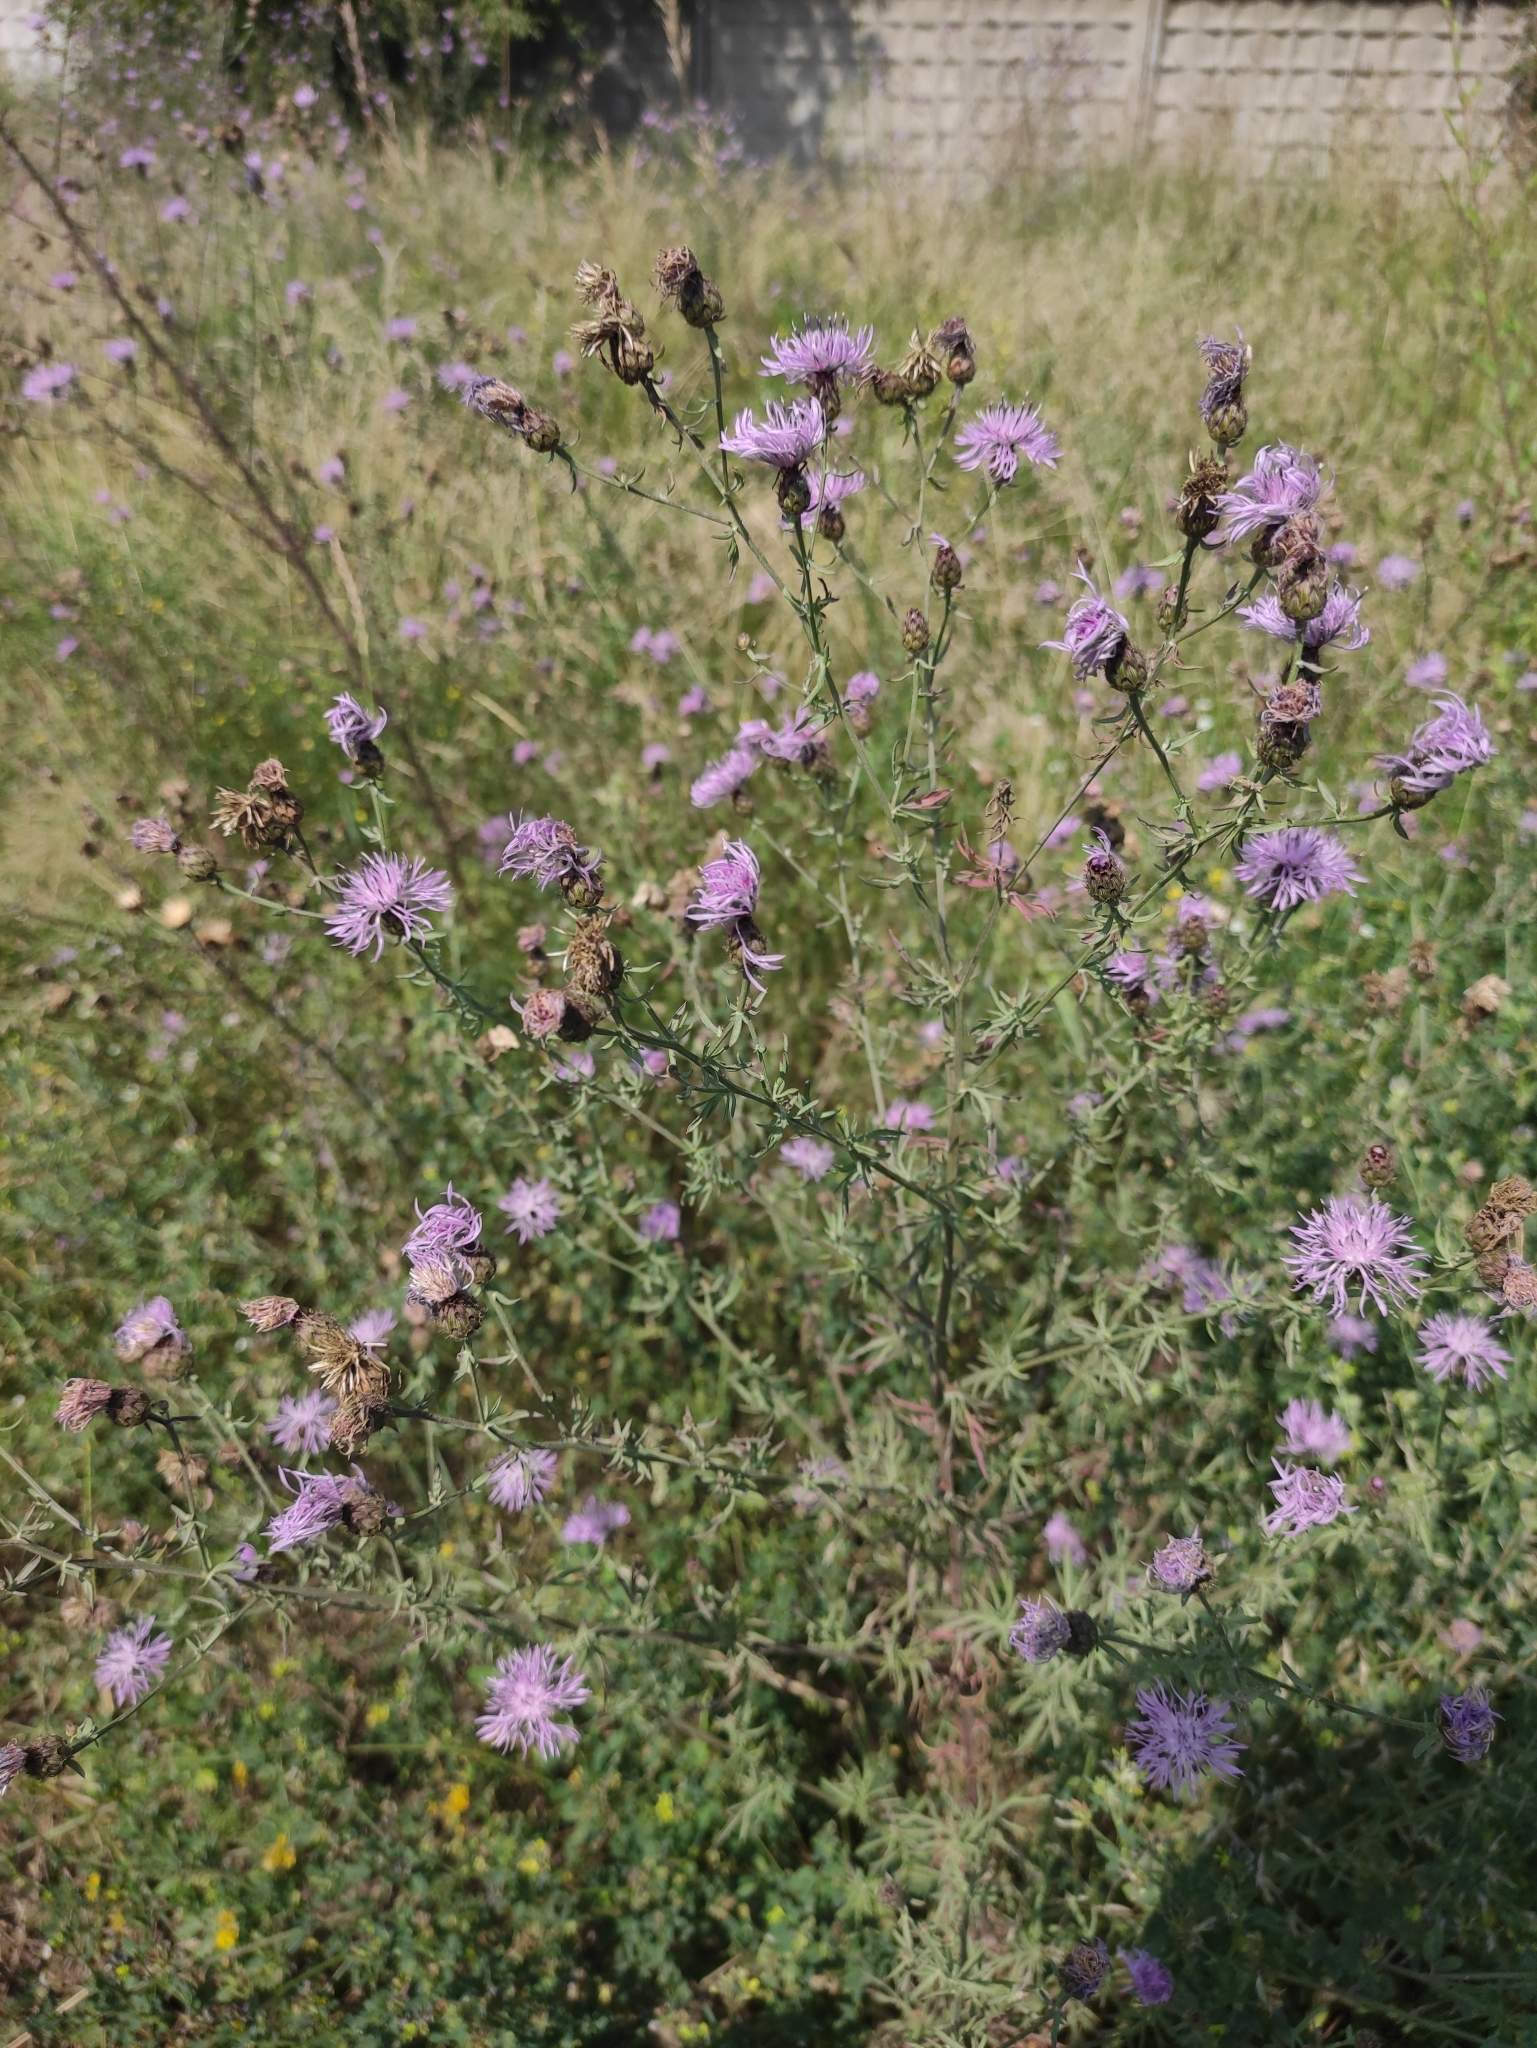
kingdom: Plantae
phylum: Tracheophyta
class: Magnoliopsida
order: Asterales
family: Asteraceae
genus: Centaurea
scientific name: Centaurea stoebe
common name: Spotted knapweed
